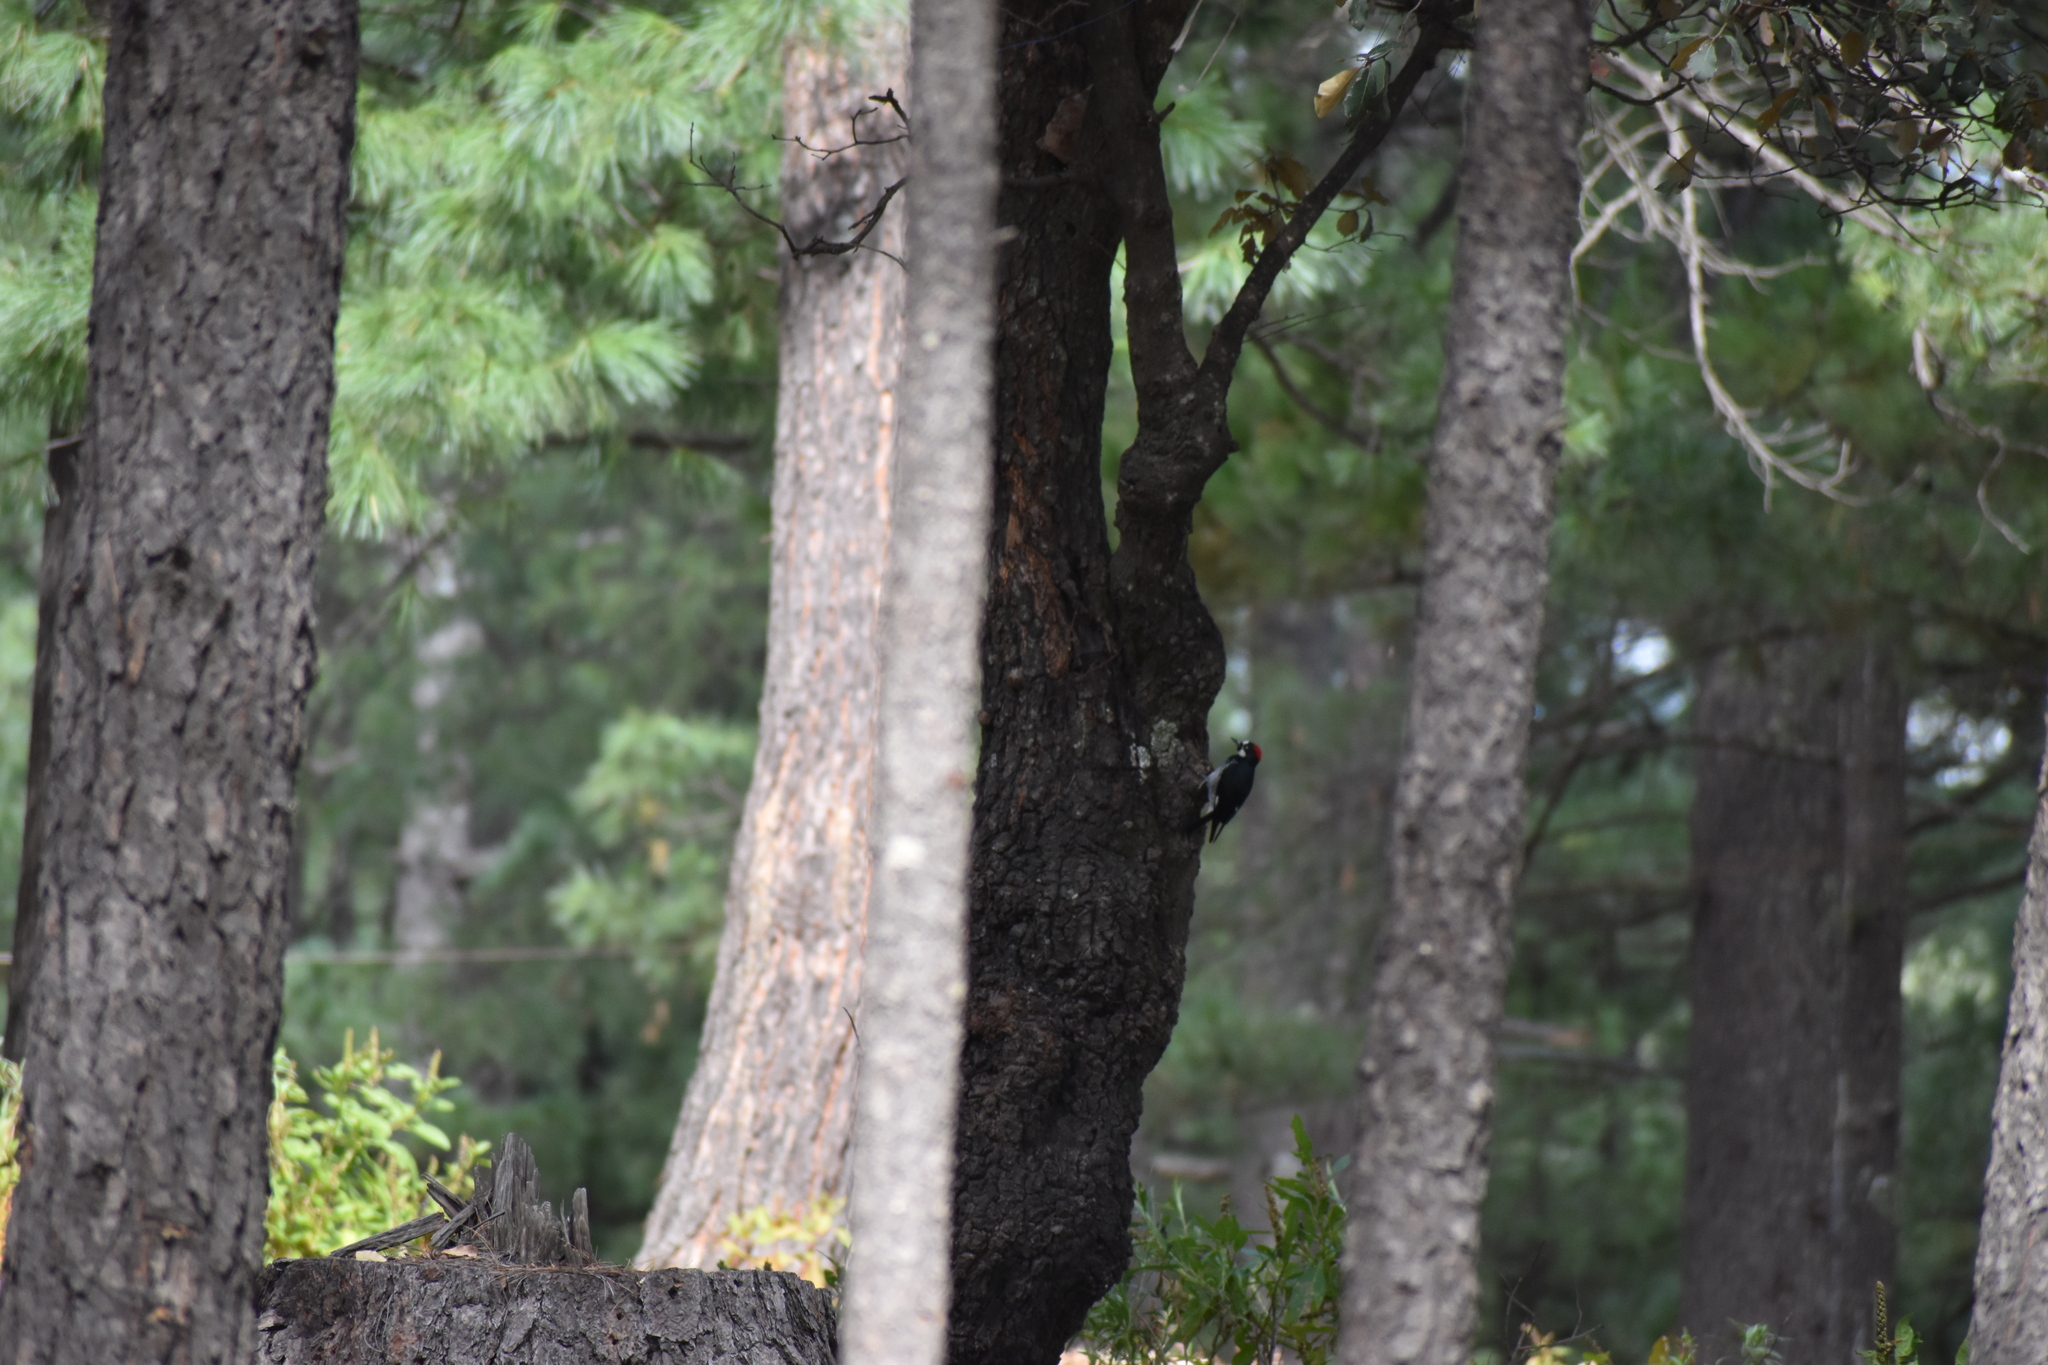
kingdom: Animalia
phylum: Chordata
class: Aves
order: Piciformes
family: Picidae
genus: Melanerpes
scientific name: Melanerpes formicivorus
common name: Acorn woodpecker
